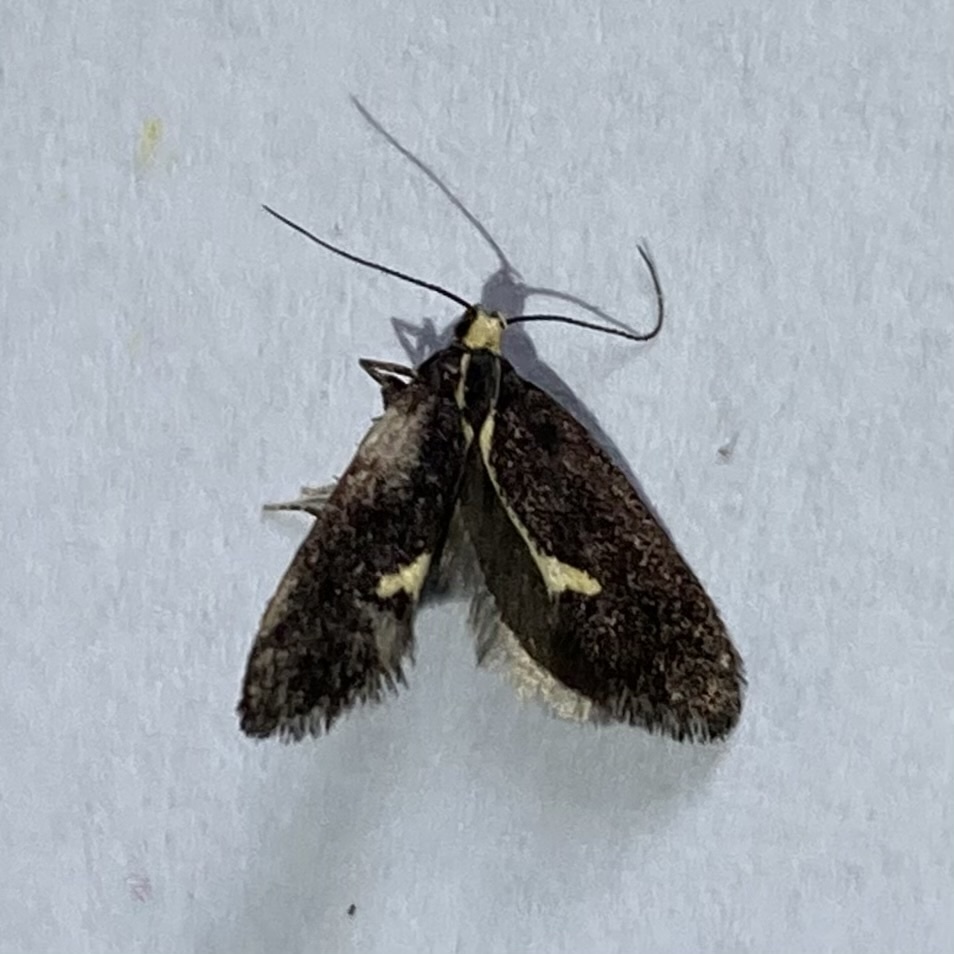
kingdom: Animalia
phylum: Arthropoda
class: Insecta
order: Lepidoptera
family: Oecophoridae
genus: Polix
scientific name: Polix coloradella
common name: Skunk moth
